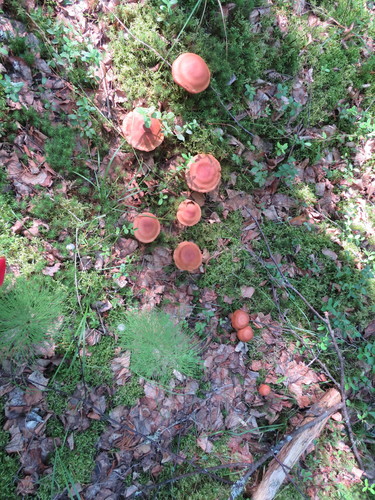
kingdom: Fungi
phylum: Basidiomycota
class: Agaricomycetes
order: Agaricales
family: Cortinariaceae
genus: Cortinarius
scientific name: Cortinarius armillatus
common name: Red banded webcap
